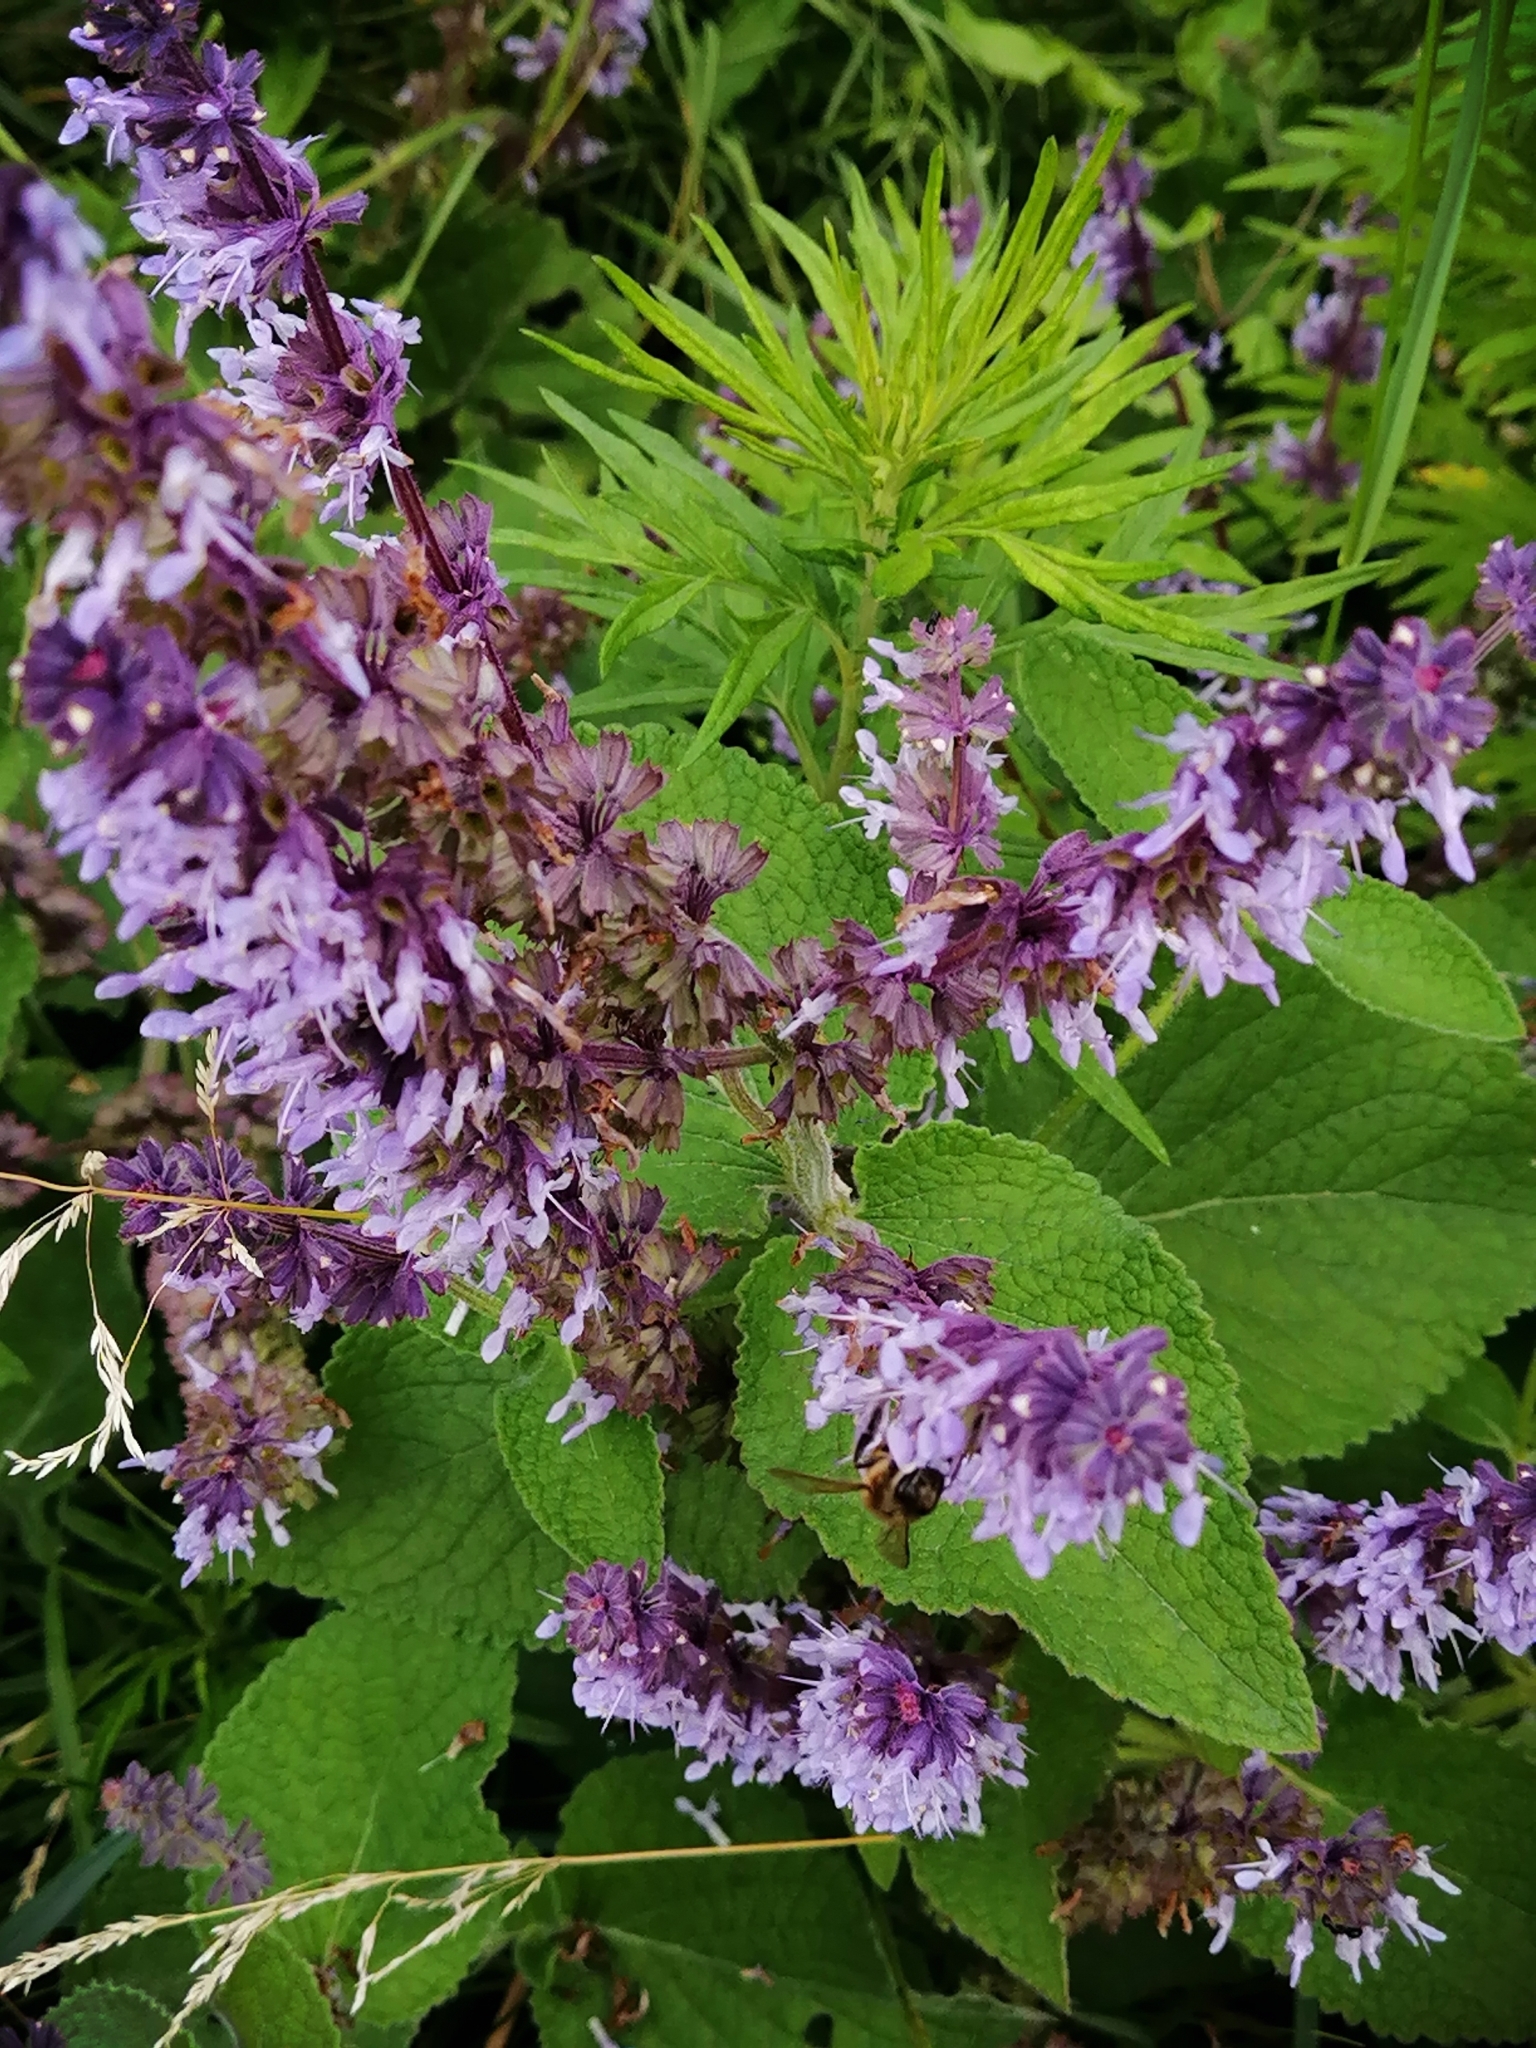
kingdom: Plantae
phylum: Tracheophyta
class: Magnoliopsida
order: Lamiales
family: Lamiaceae
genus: Salvia
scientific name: Salvia verticillata
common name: Whorled clary
